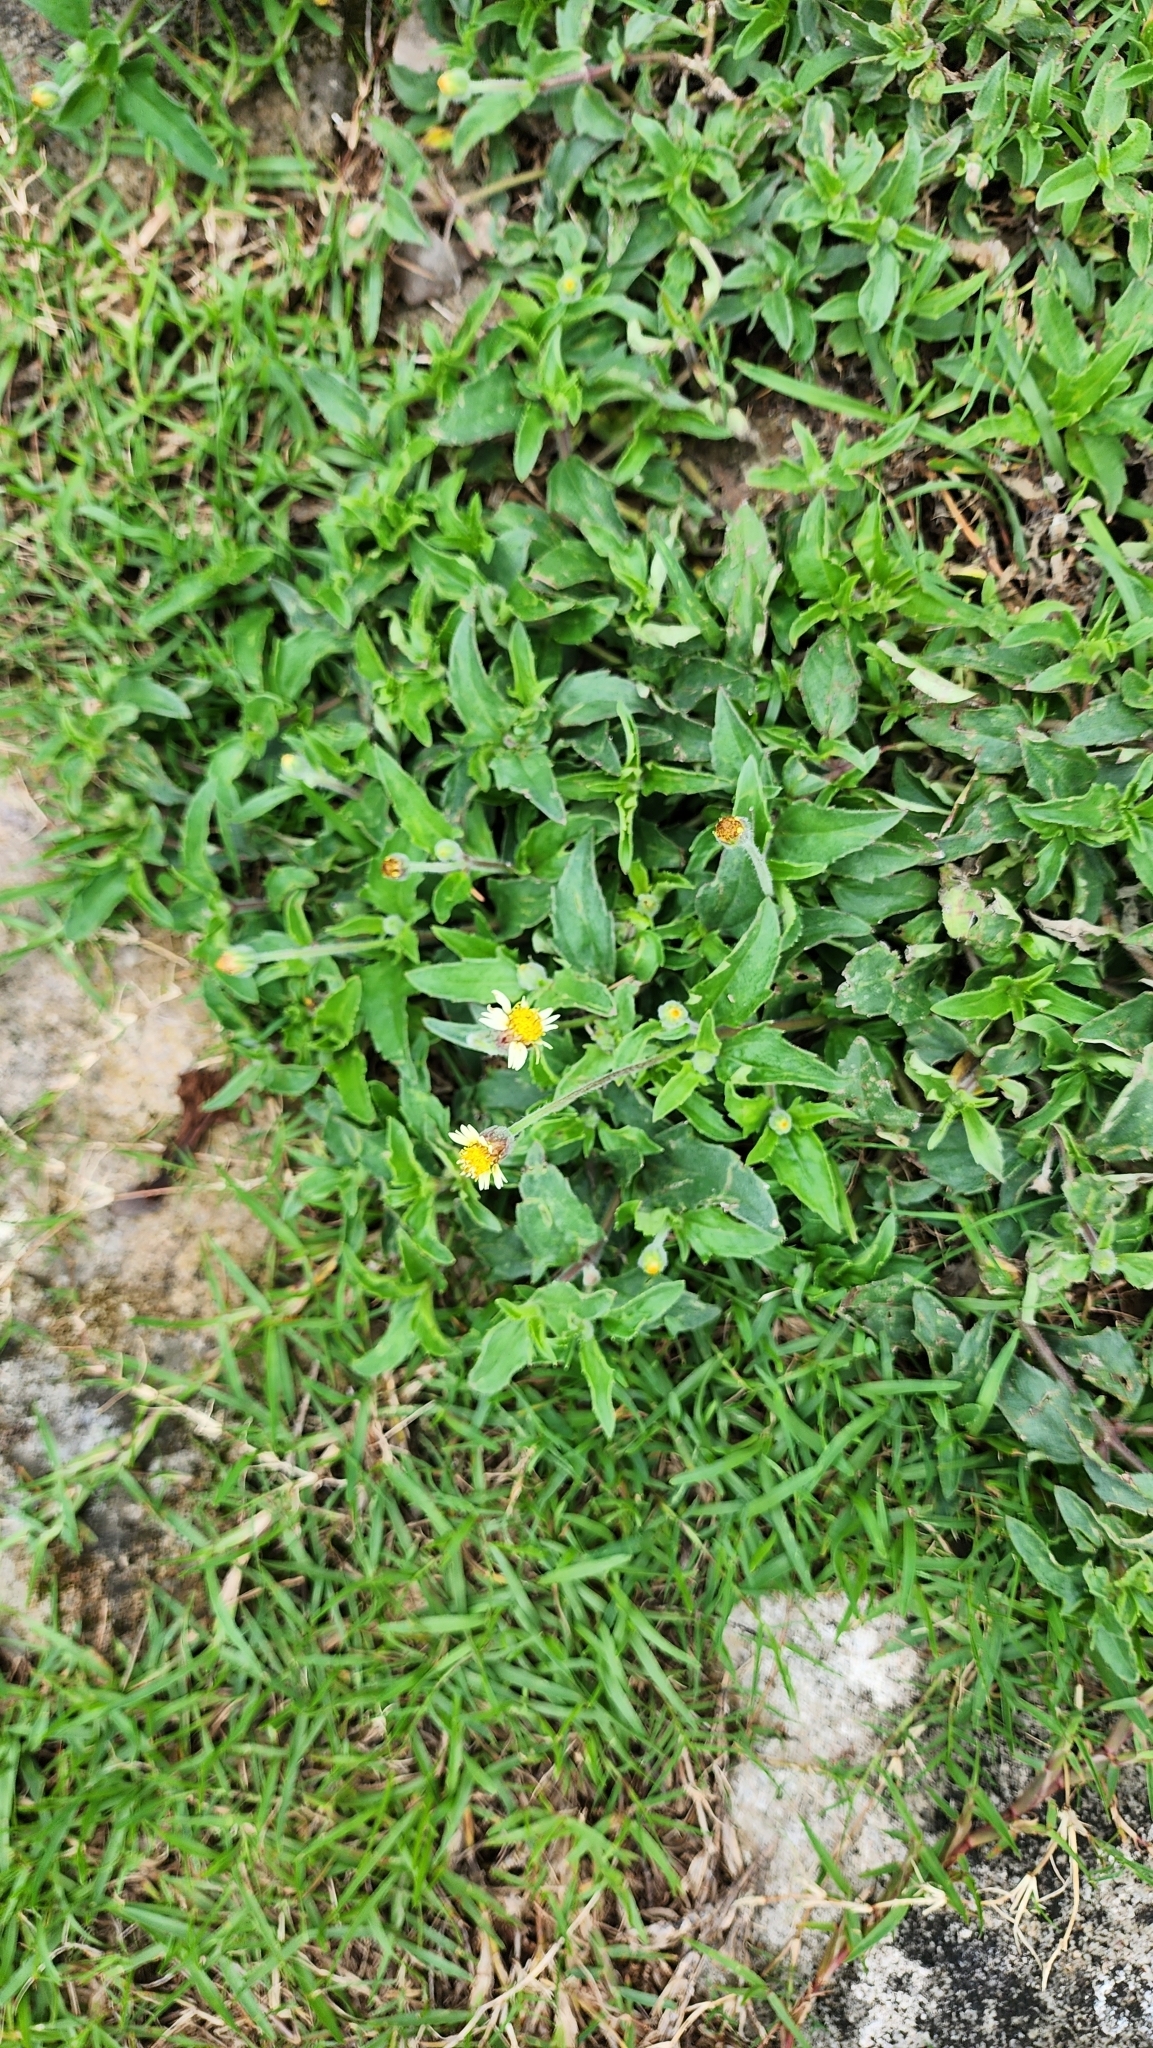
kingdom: Plantae
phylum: Tracheophyta
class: Magnoliopsida
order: Asterales
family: Asteraceae
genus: Tridax
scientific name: Tridax procumbens
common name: Coatbuttons
